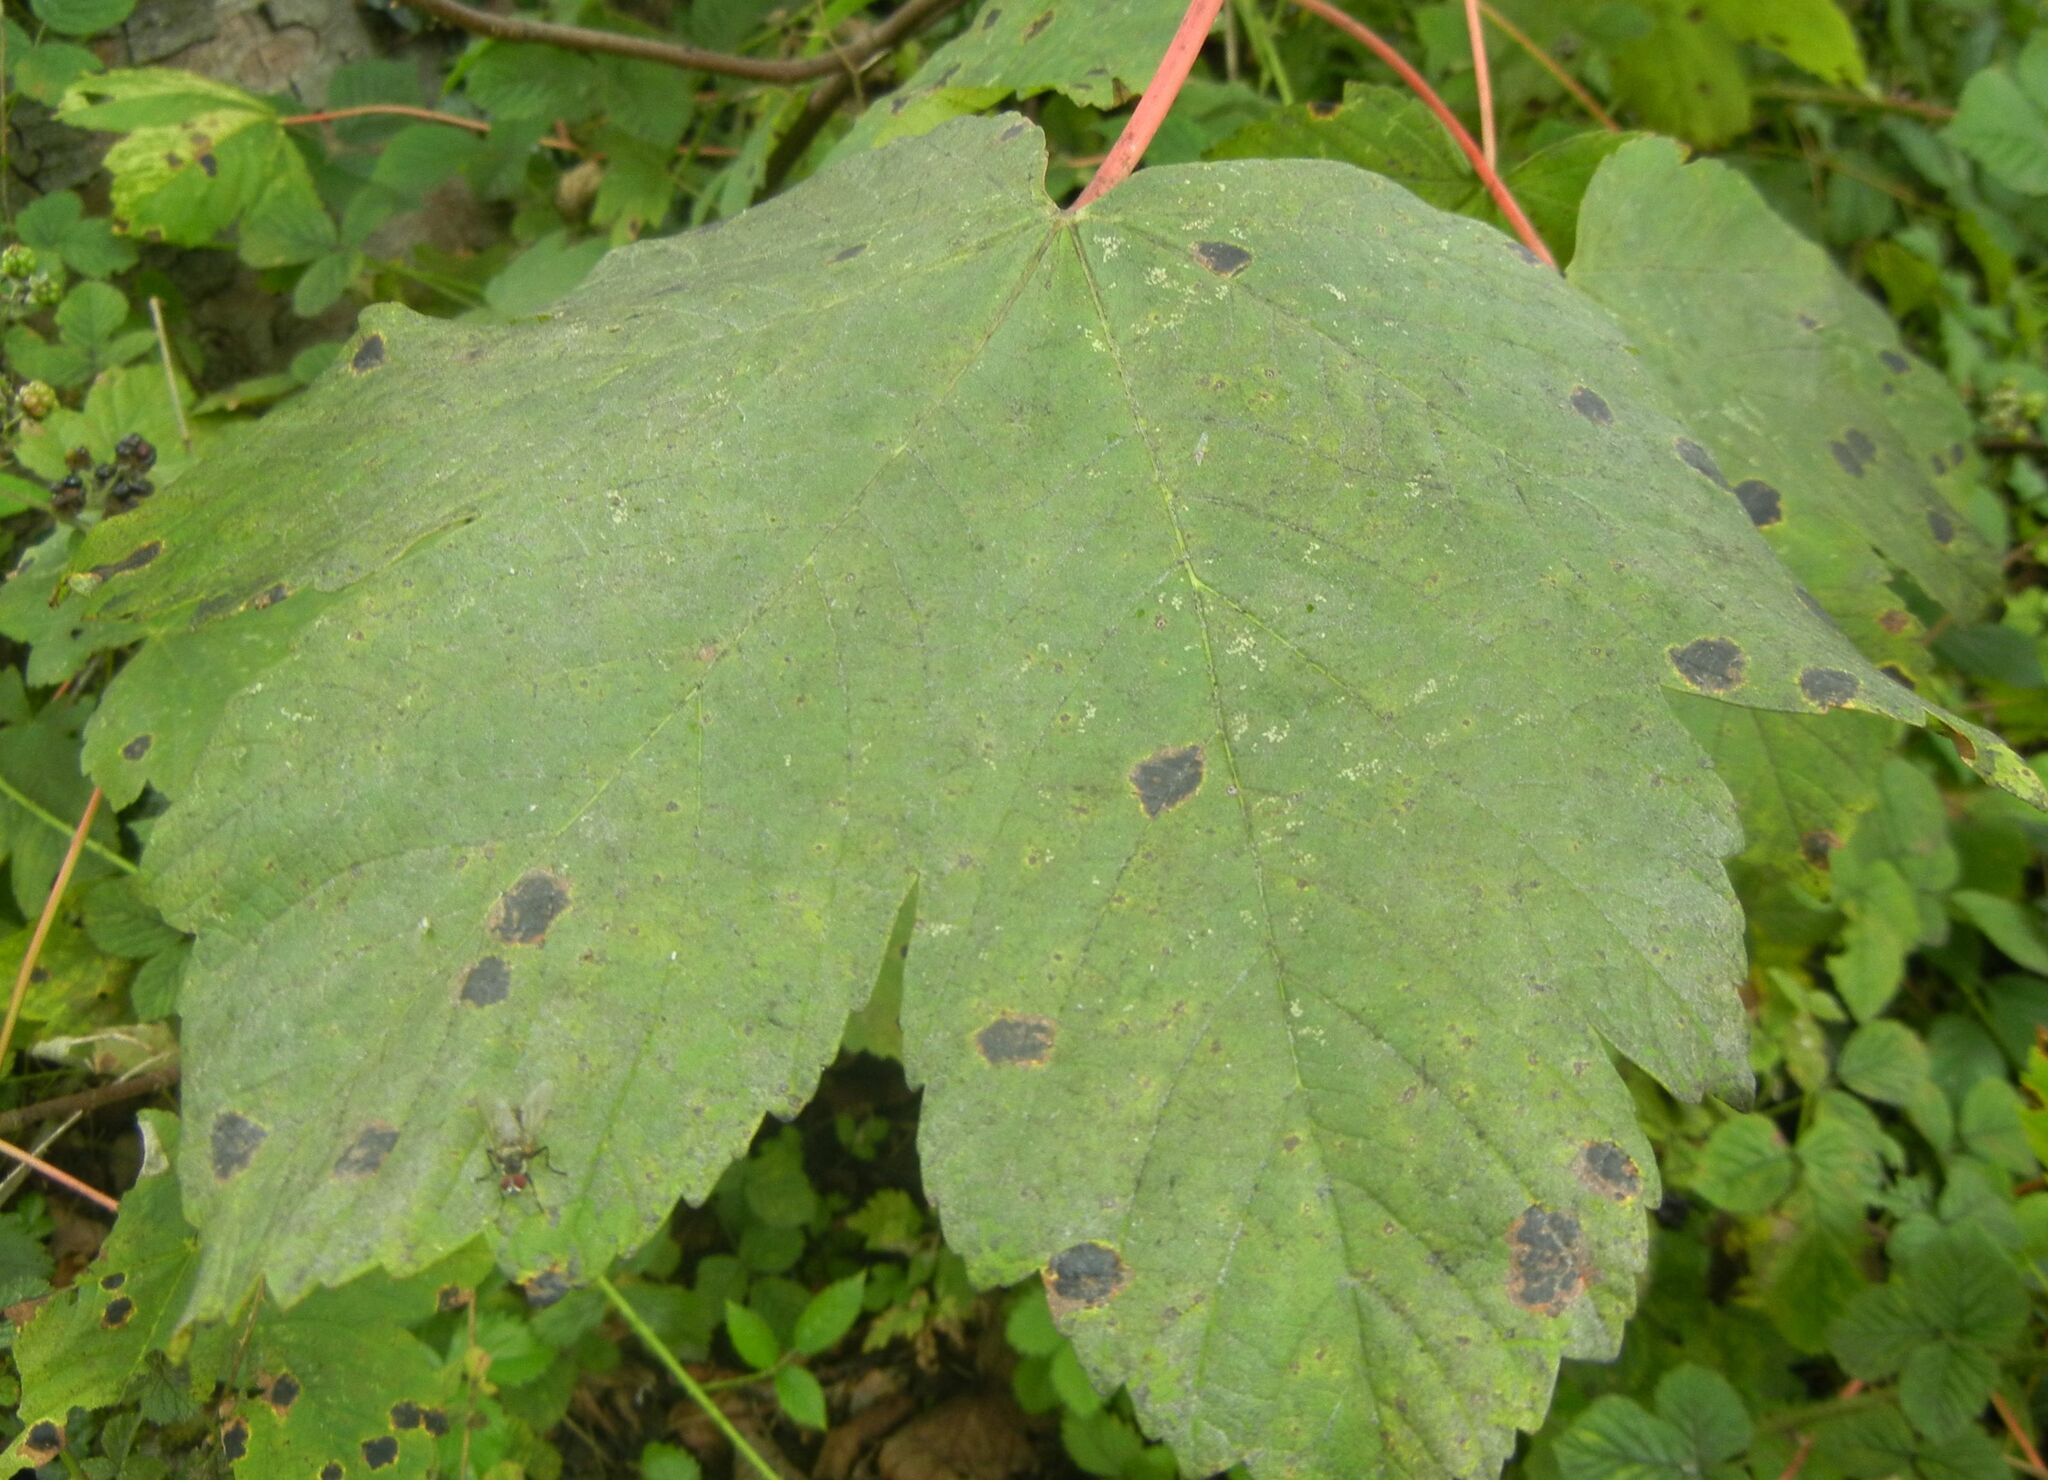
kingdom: Fungi
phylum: Ascomycota
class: Leotiomycetes
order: Rhytismatales
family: Rhytismataceae
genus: Rhytisma
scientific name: Rhytisma acerinum
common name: European tar spot
